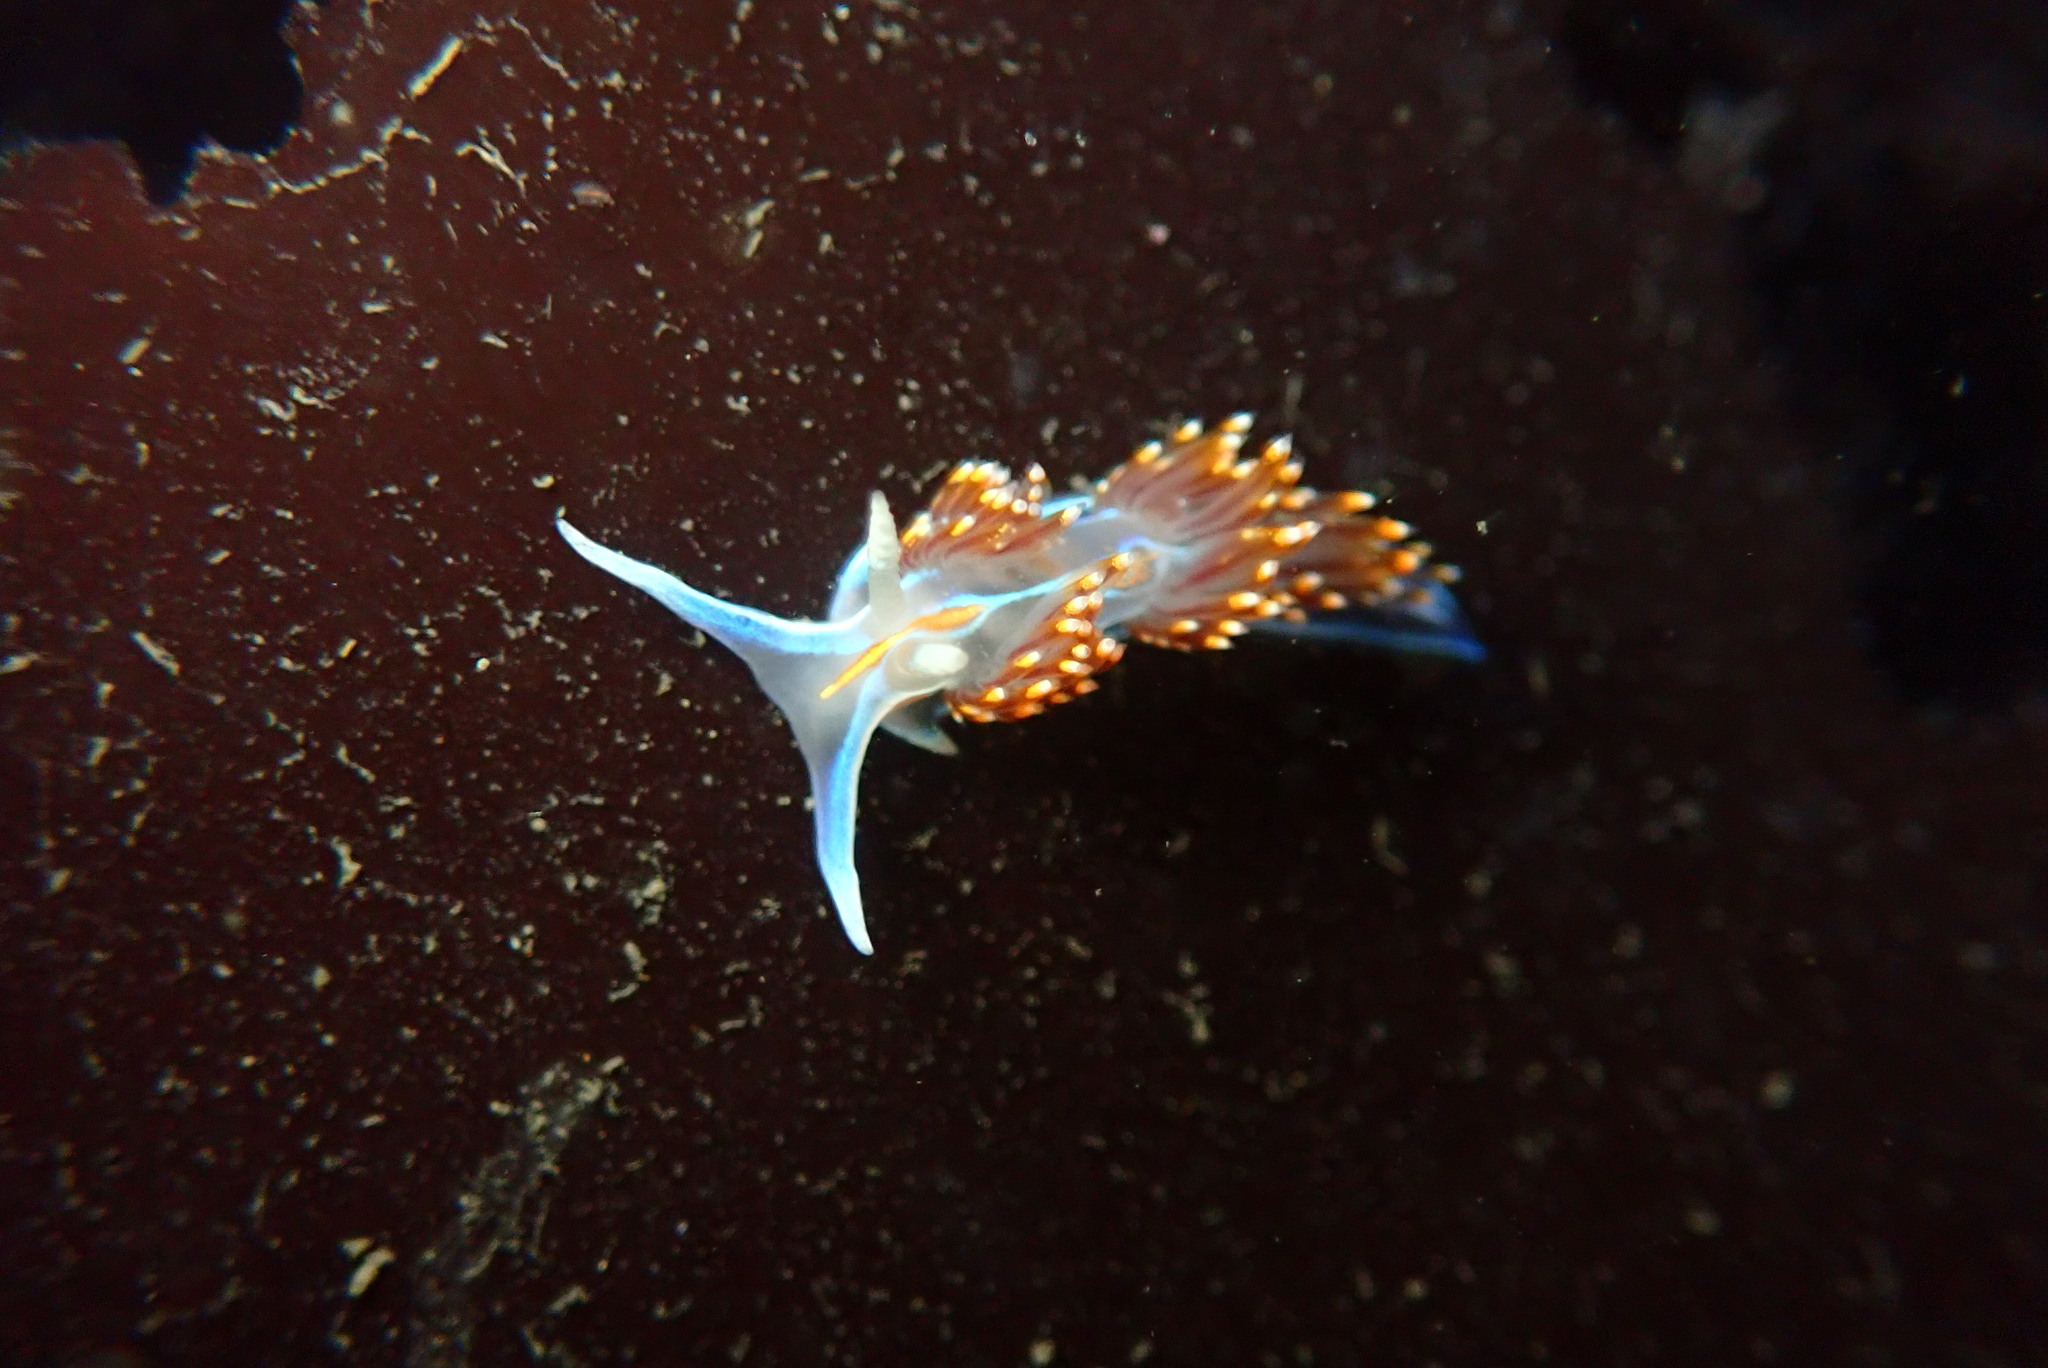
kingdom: Animalia
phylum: Mollusca
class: Gastropoda
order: Nudibranchia
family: Myrrhinidae
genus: Hermissenda
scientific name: Hermissenda opalescens
